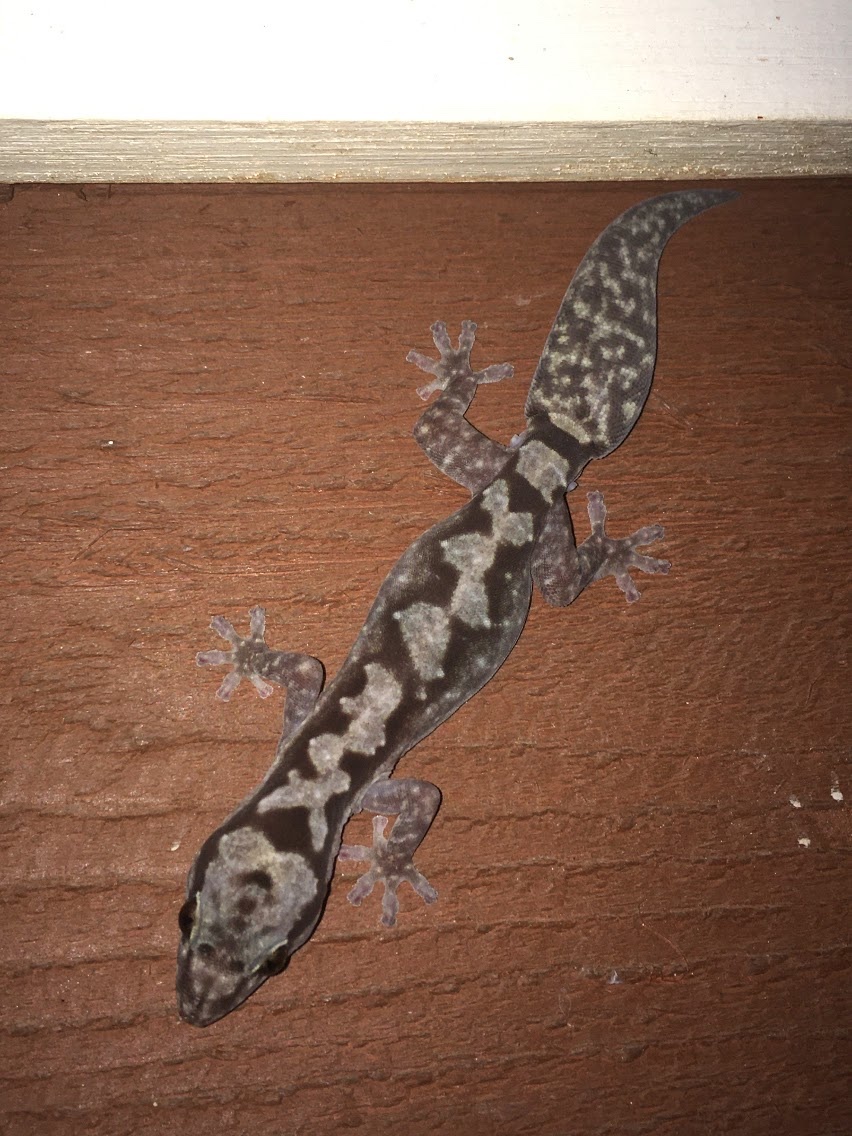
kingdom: Animalia
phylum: Chordata
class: Squamata
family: Diplodactylidae
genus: Nebulifera
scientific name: Nebulifera robusta
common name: Robust gecko
